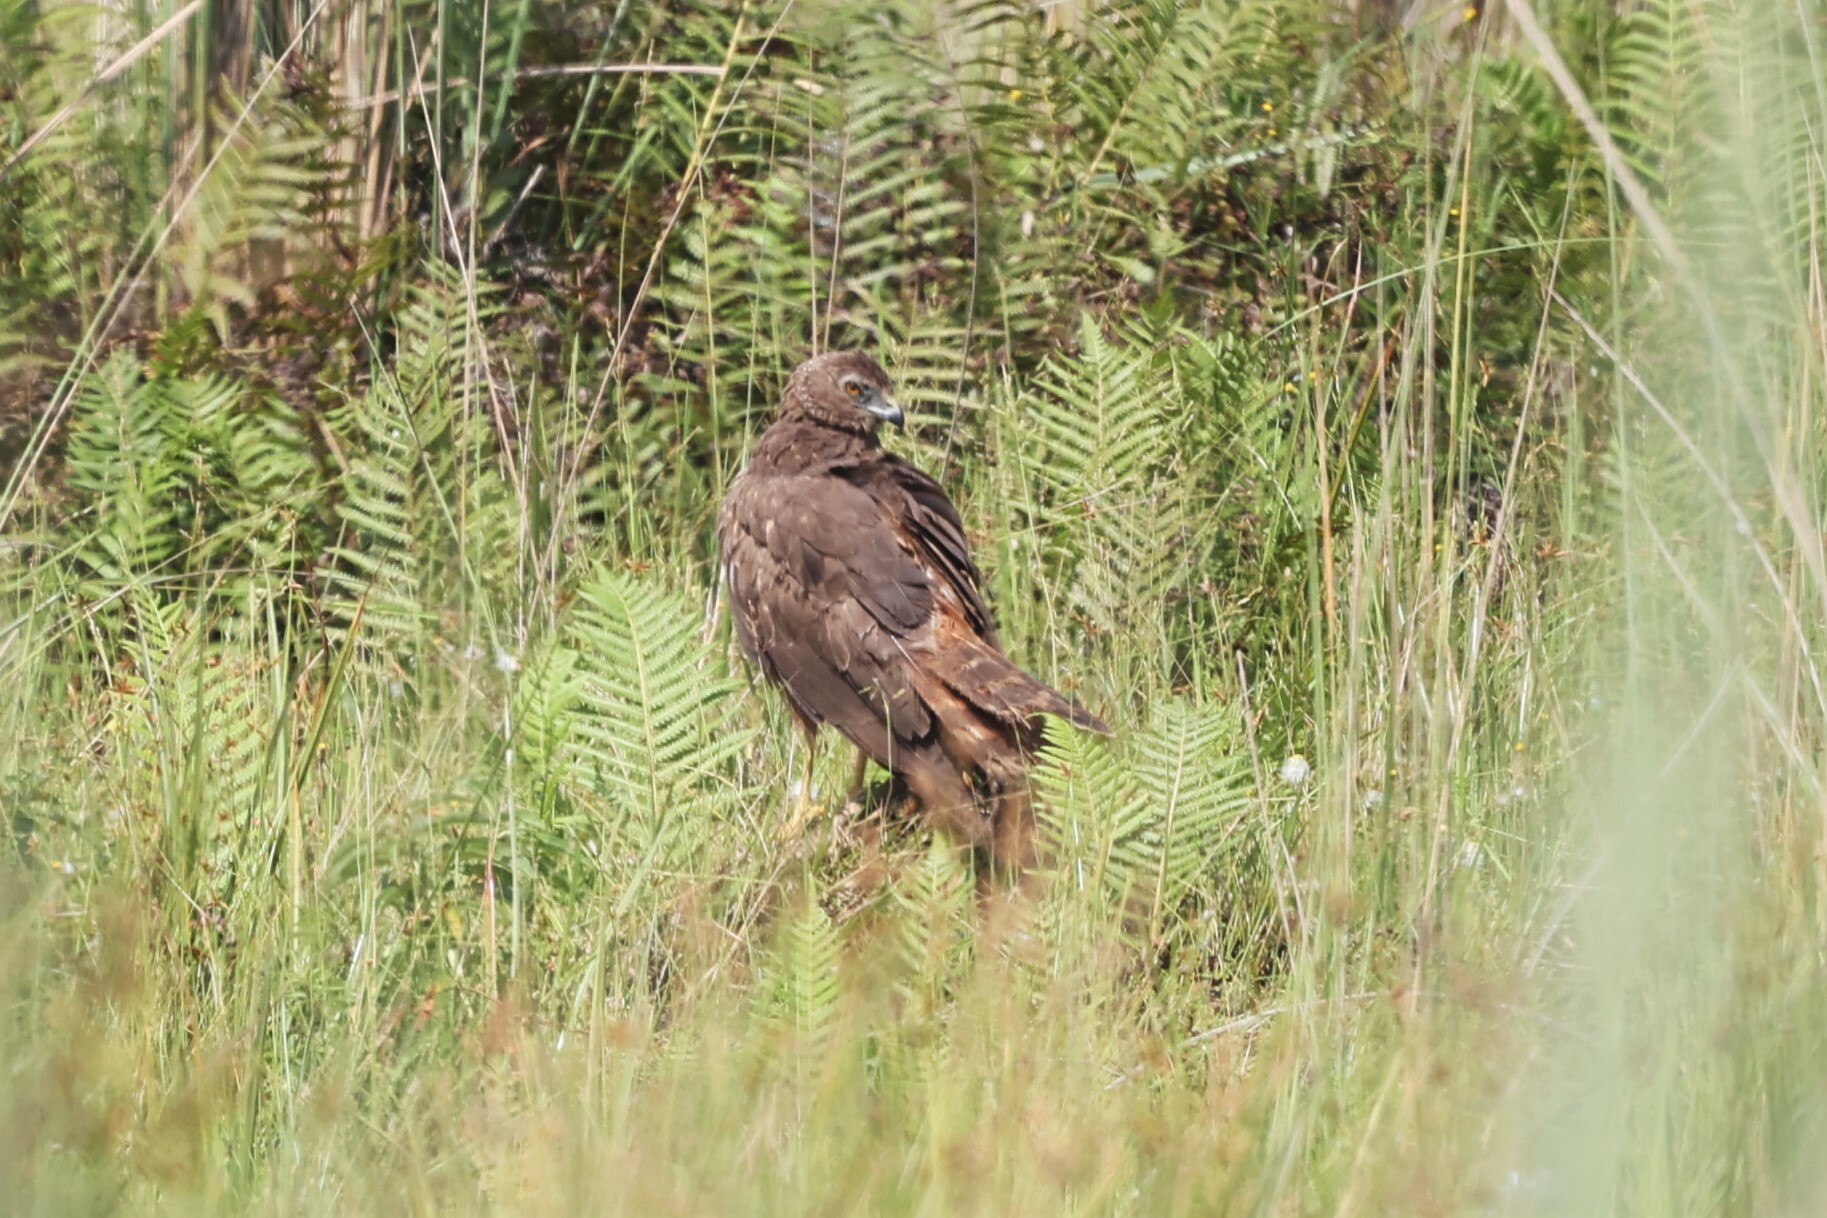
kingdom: Animalia
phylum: Chordata
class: Aves
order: Accipitriformes
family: Accipitridae
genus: Circus
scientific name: Circus ranivorus
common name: African marsh-harrier
